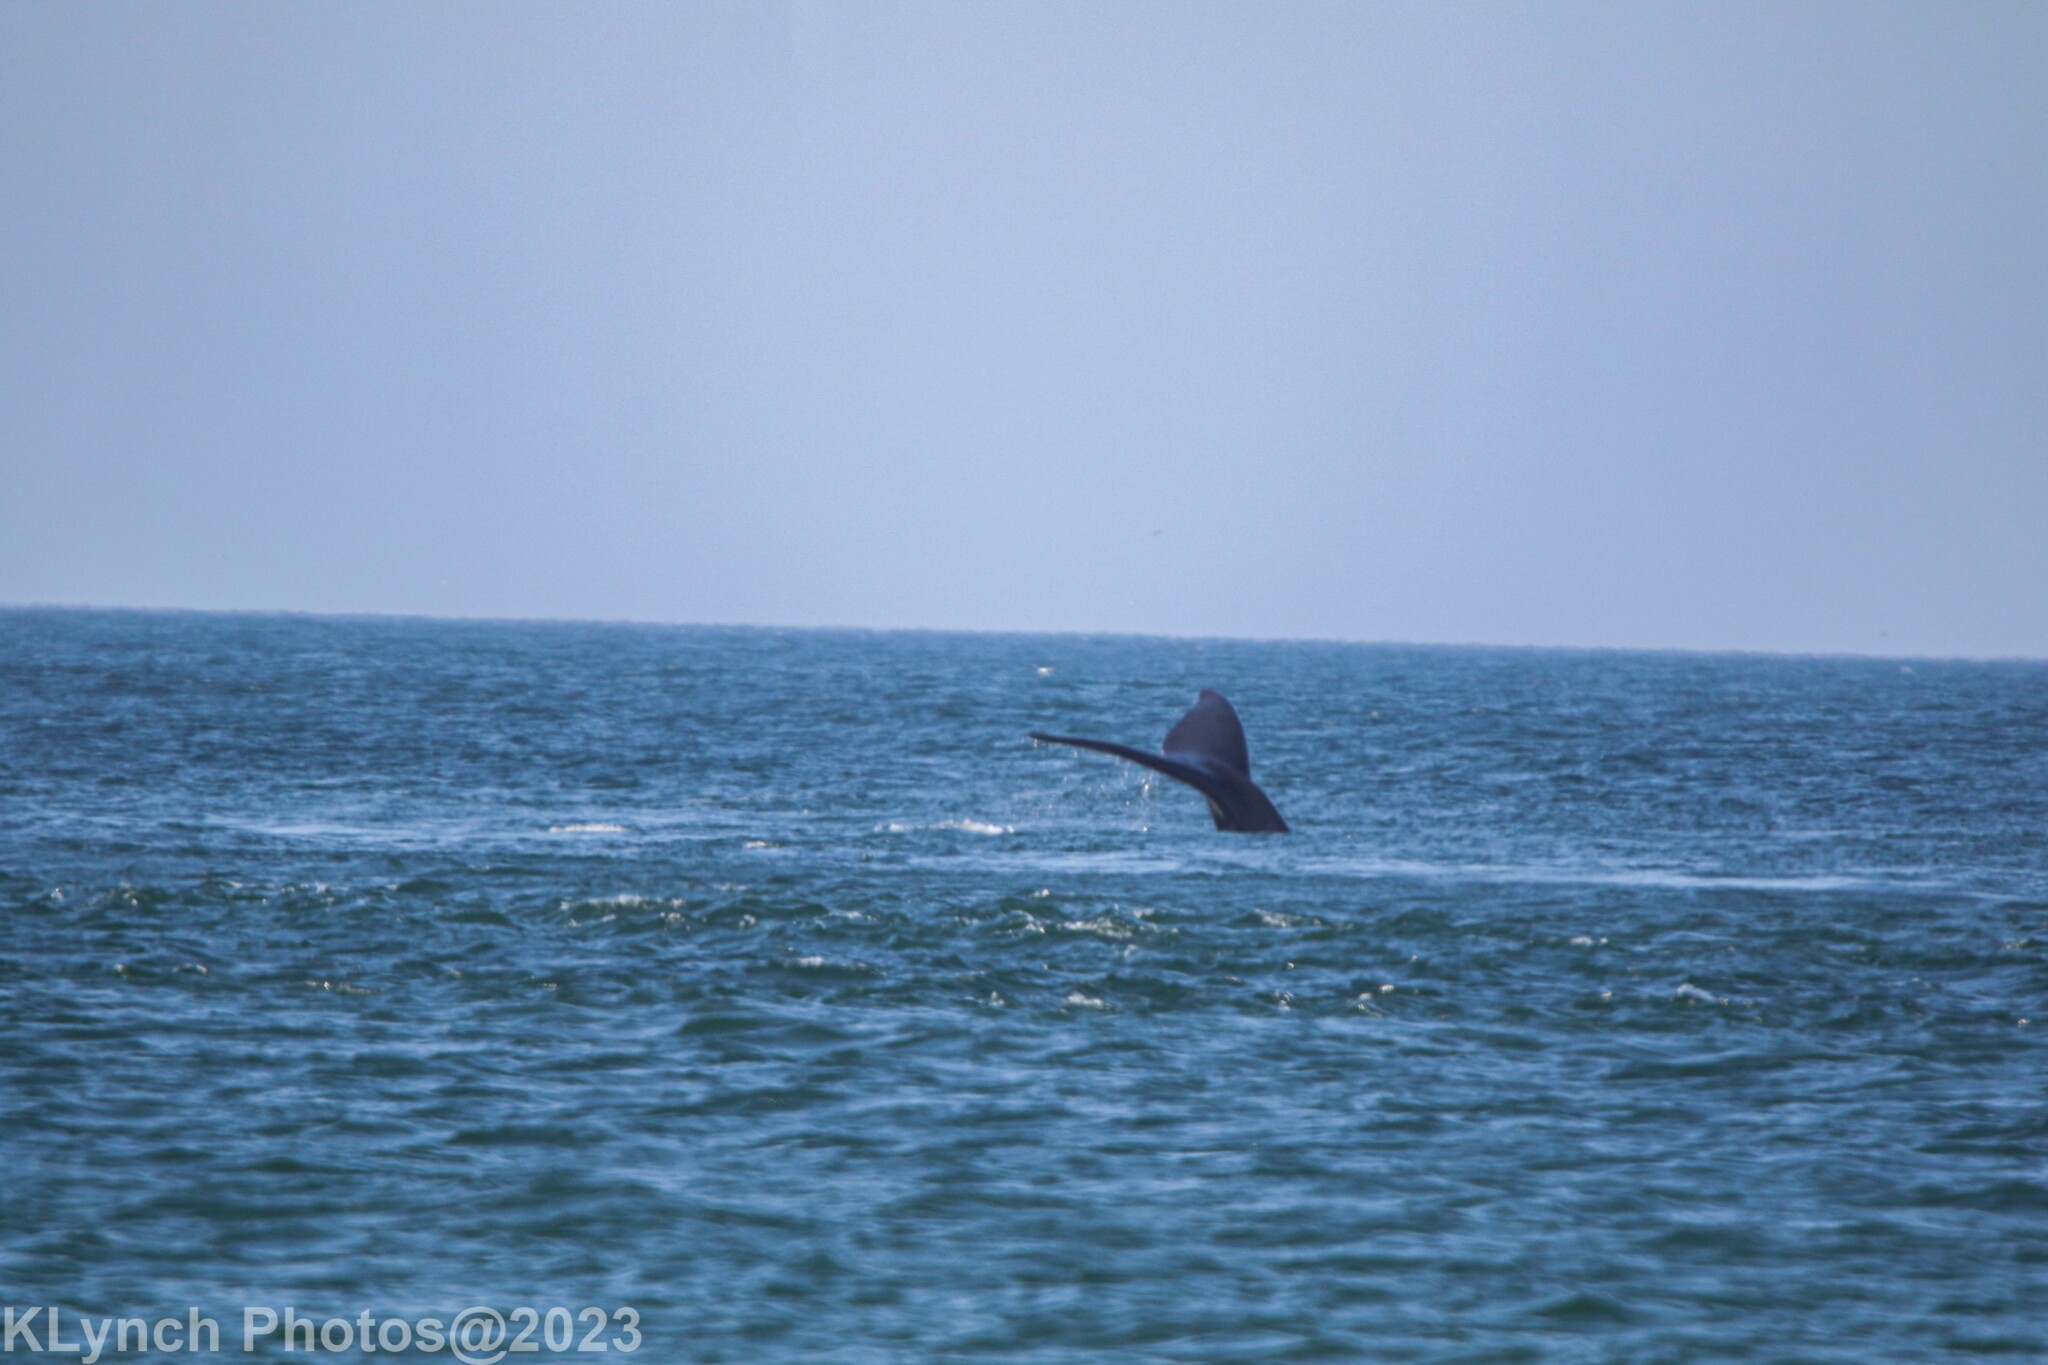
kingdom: Animalia
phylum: Chordata
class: Mammalia
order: Cetacea
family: Balaenidae
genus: Eubalaena
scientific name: Eubalaena glacialis
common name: North atlantic right whale
